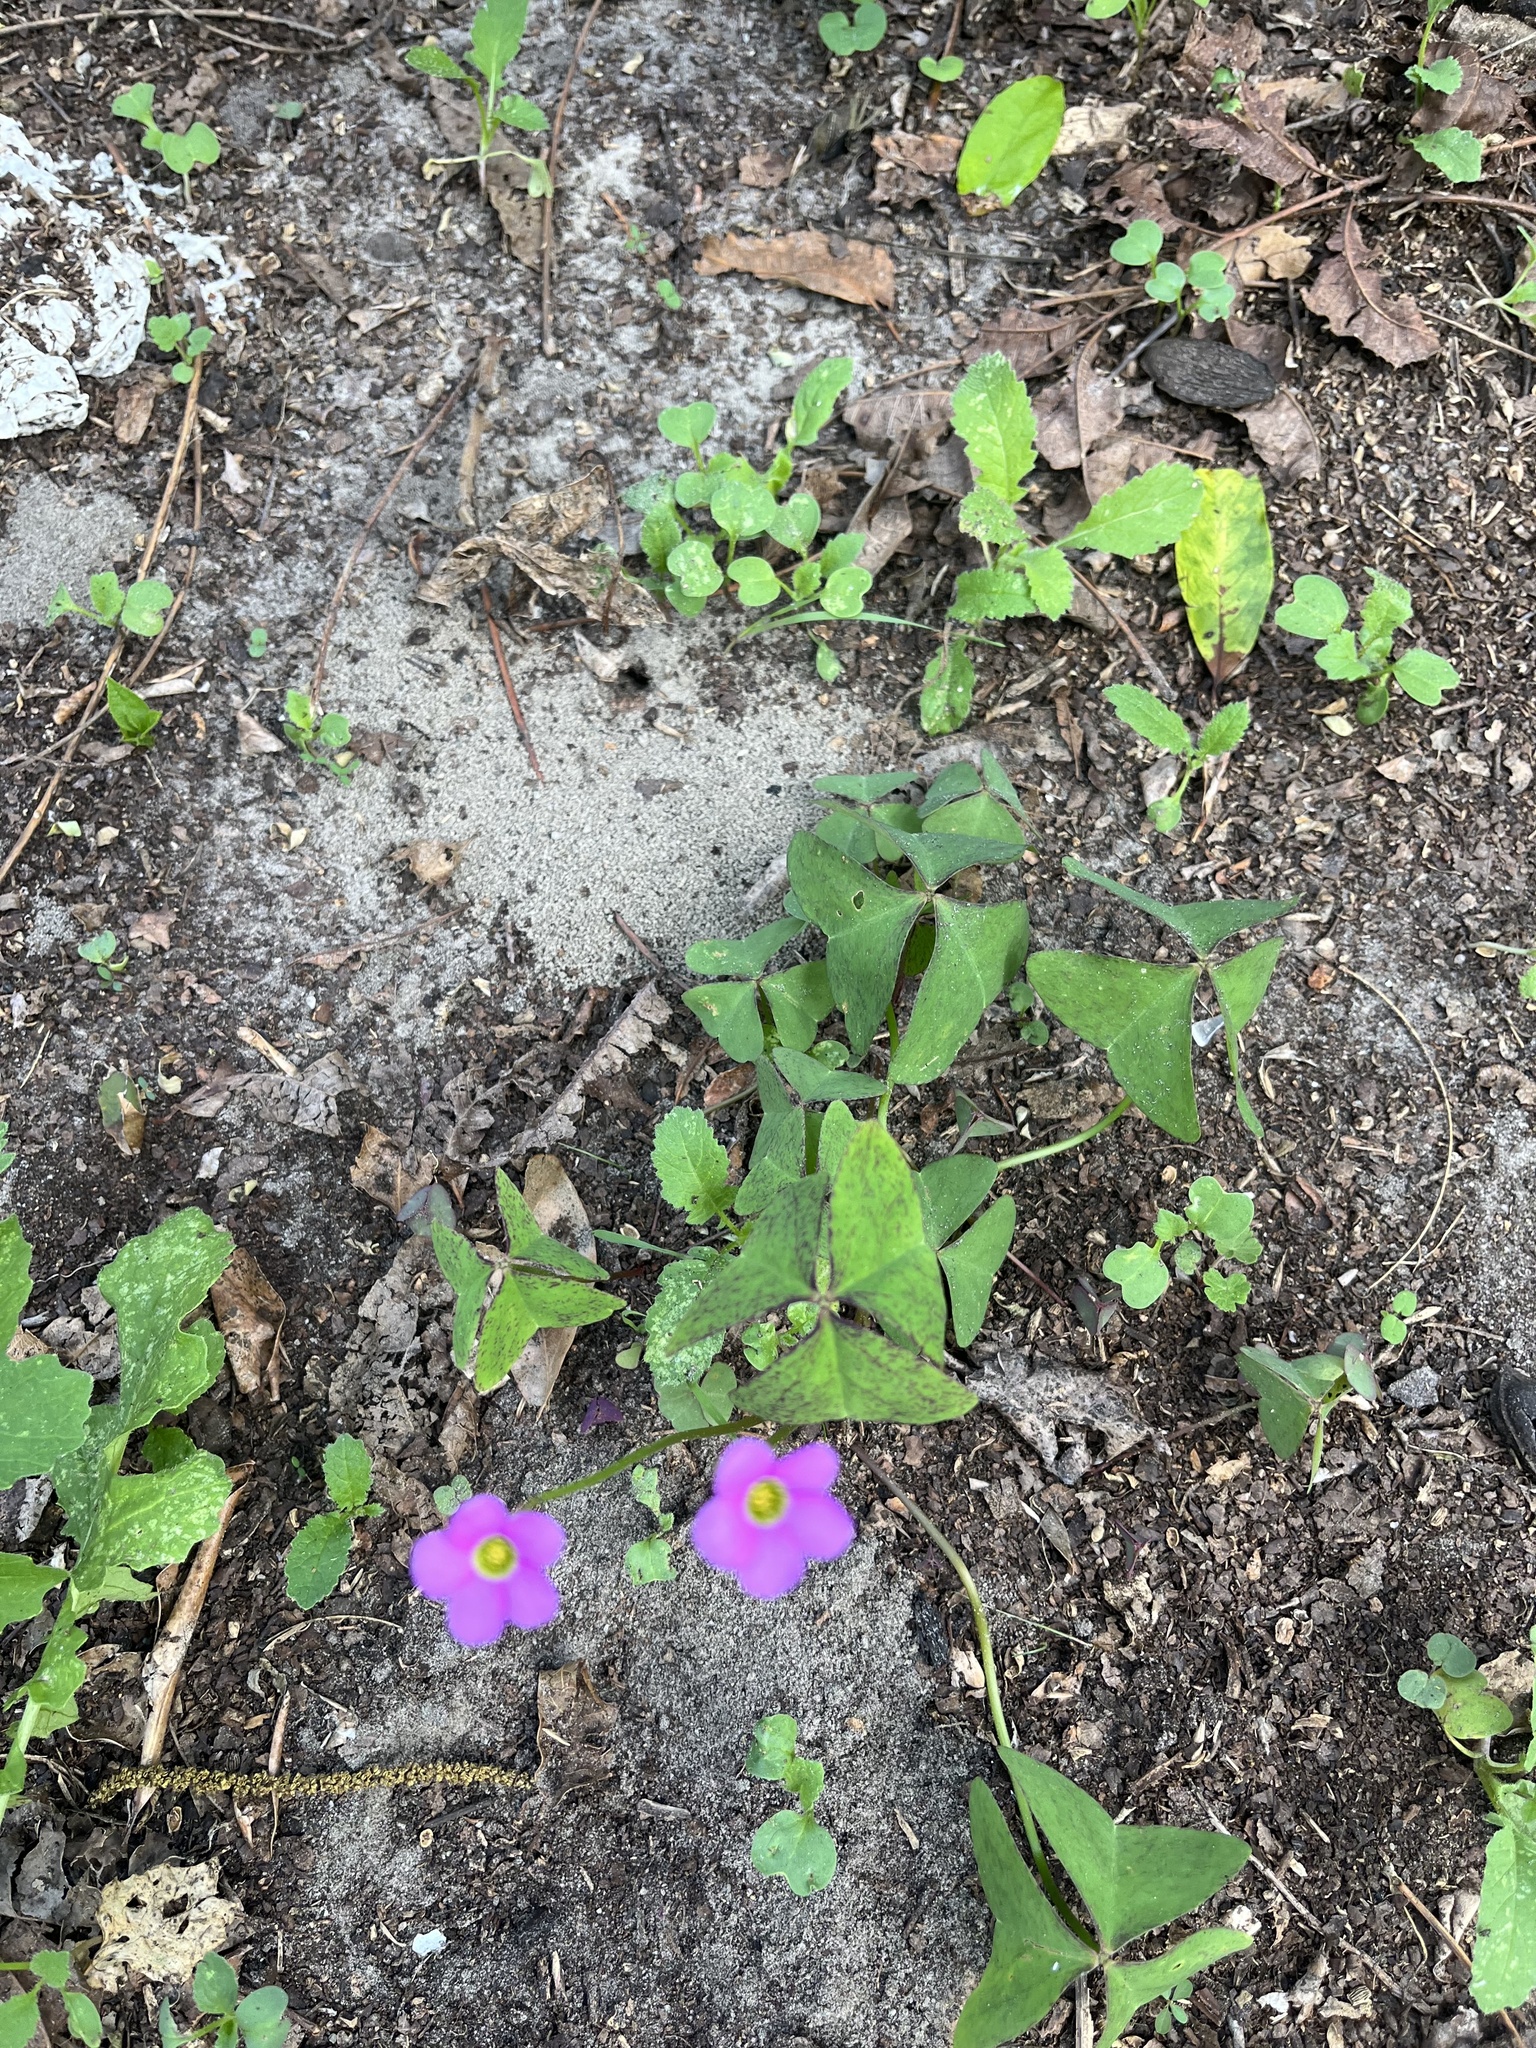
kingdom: Plantae
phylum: Tracheophyta
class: Magnoliopsida
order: Oxalidales
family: Oxalidaceae
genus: Oxalis
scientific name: Oxalis latifolia
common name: Garden pink-sorrel
